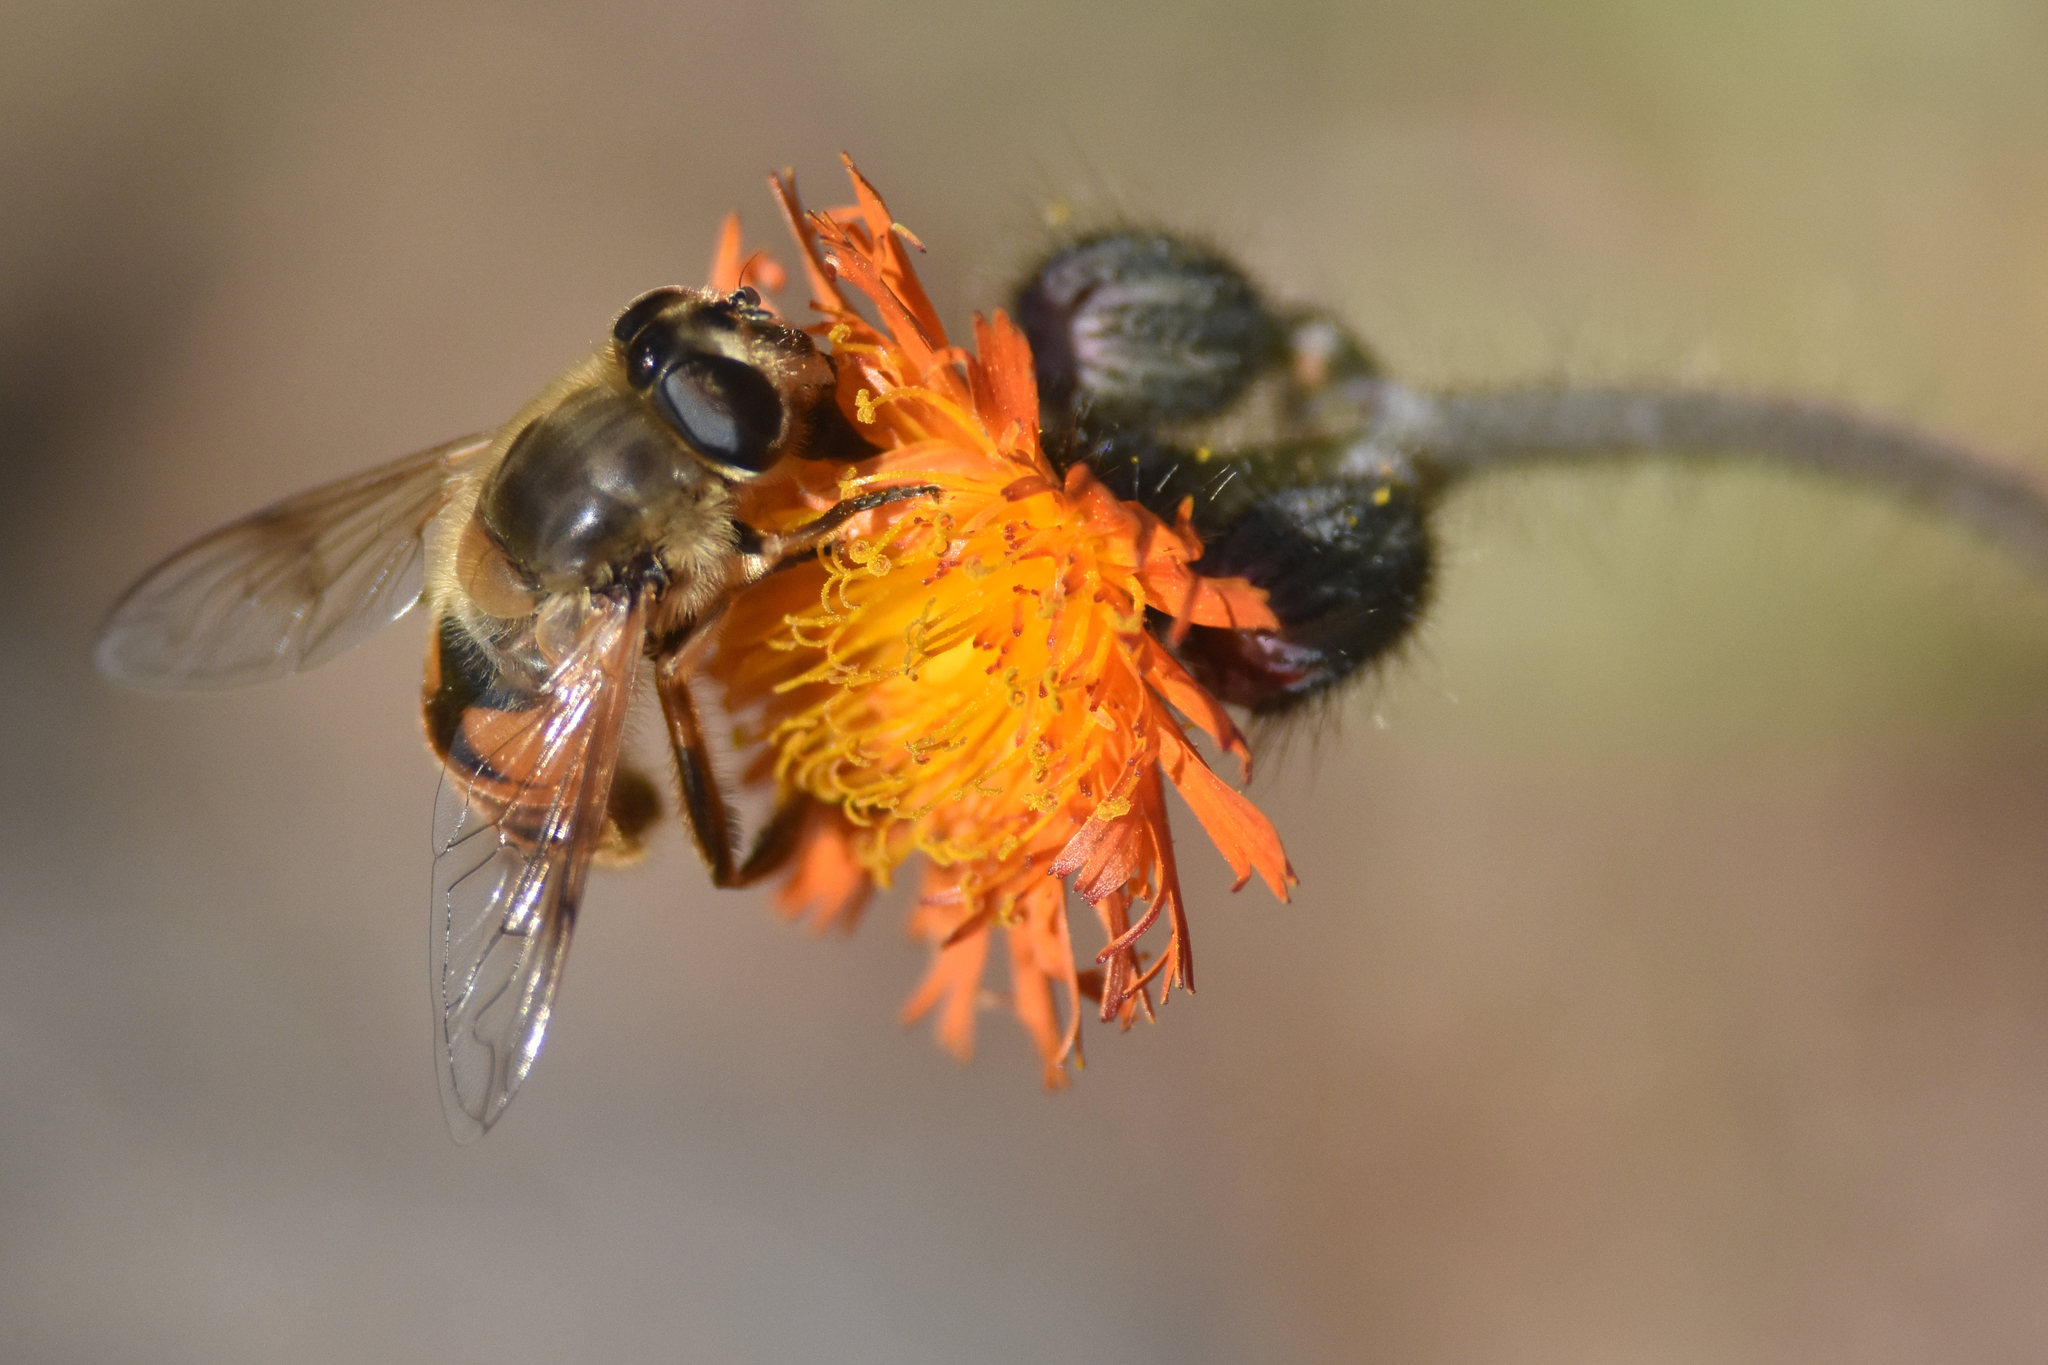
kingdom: Animalia
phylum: Arthropoda
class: Insecta
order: Diptera
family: Syrphidae
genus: Eristalis
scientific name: Eristalis tenax
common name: Drone fly
